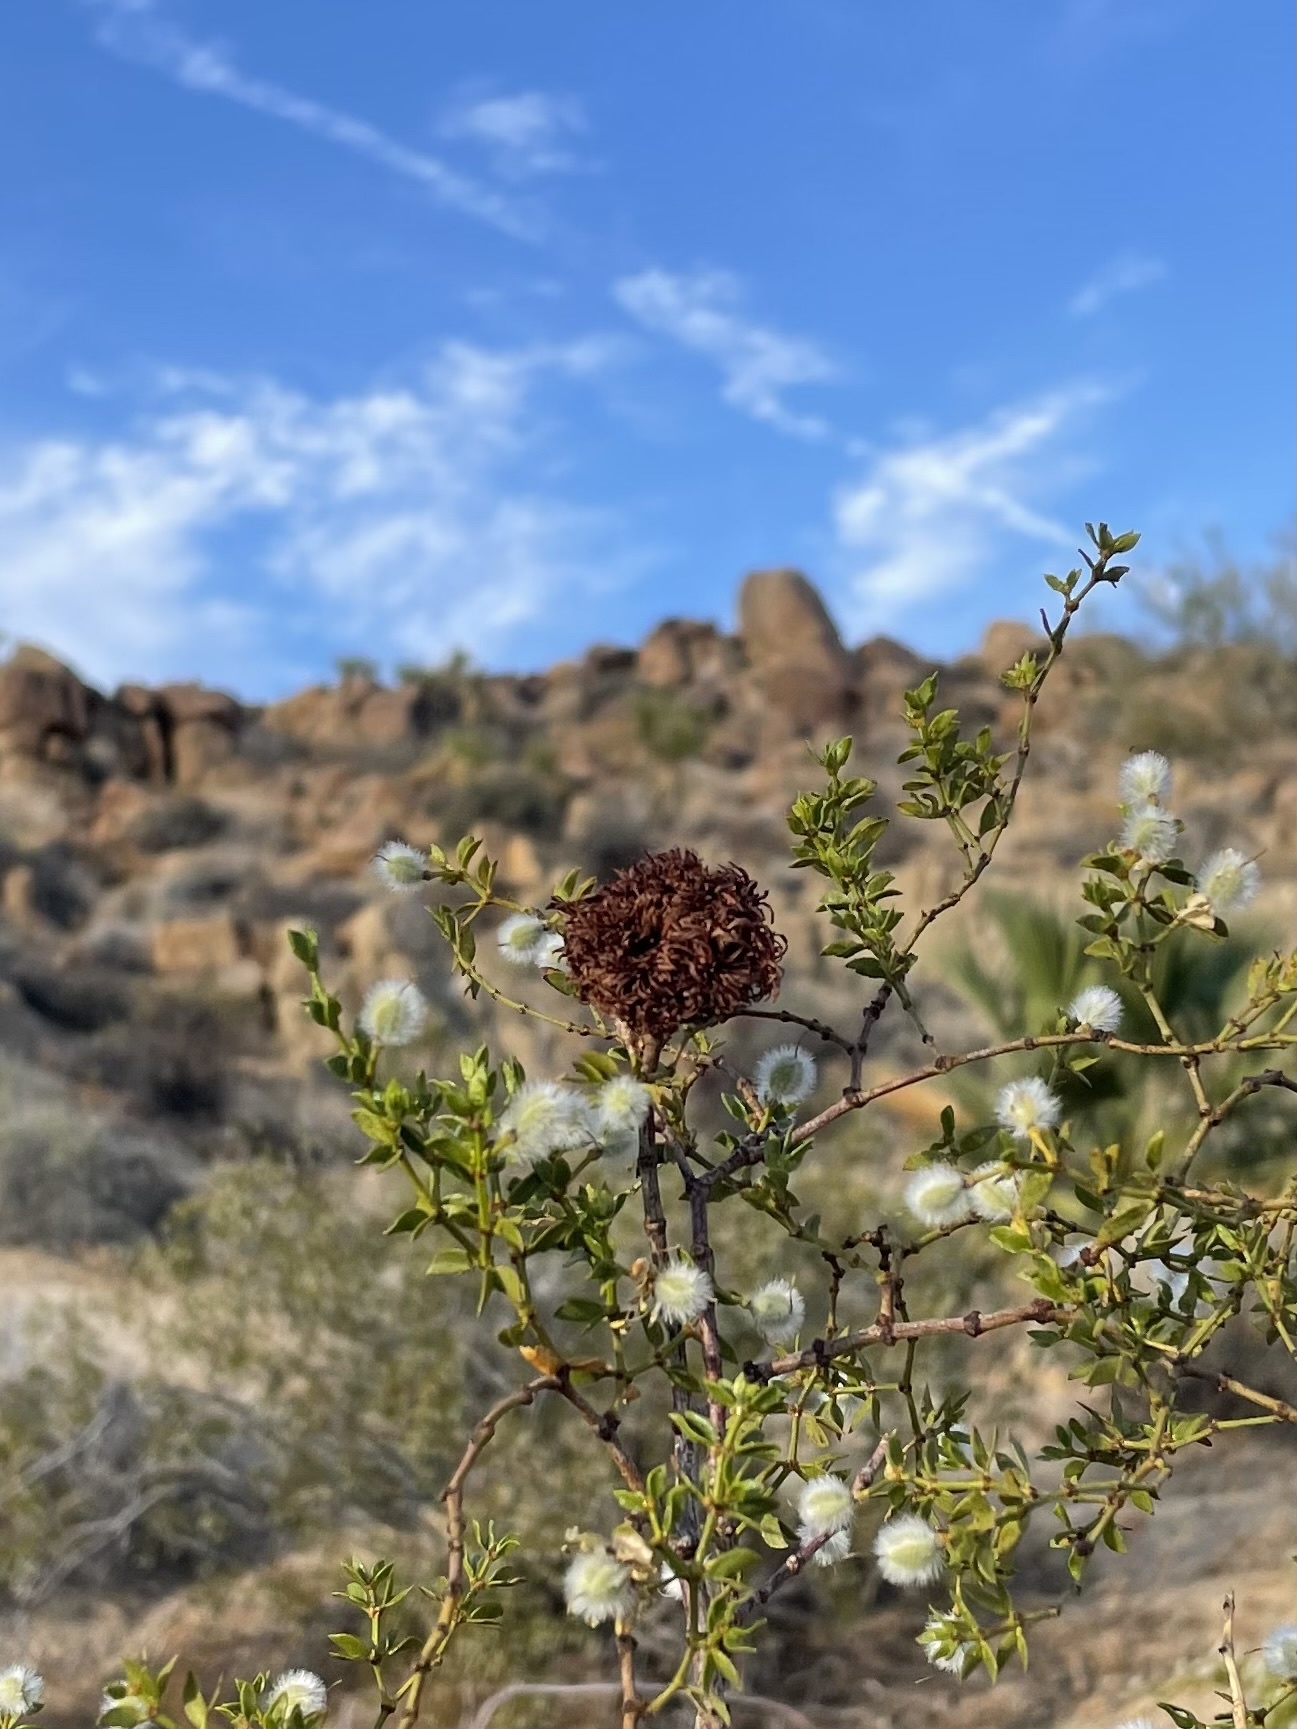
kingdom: Animalia
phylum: Arthropoda
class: Insecta
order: Diptera
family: Cecidomyiidae
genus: Asphondylia
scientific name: Asphondylia auripila
